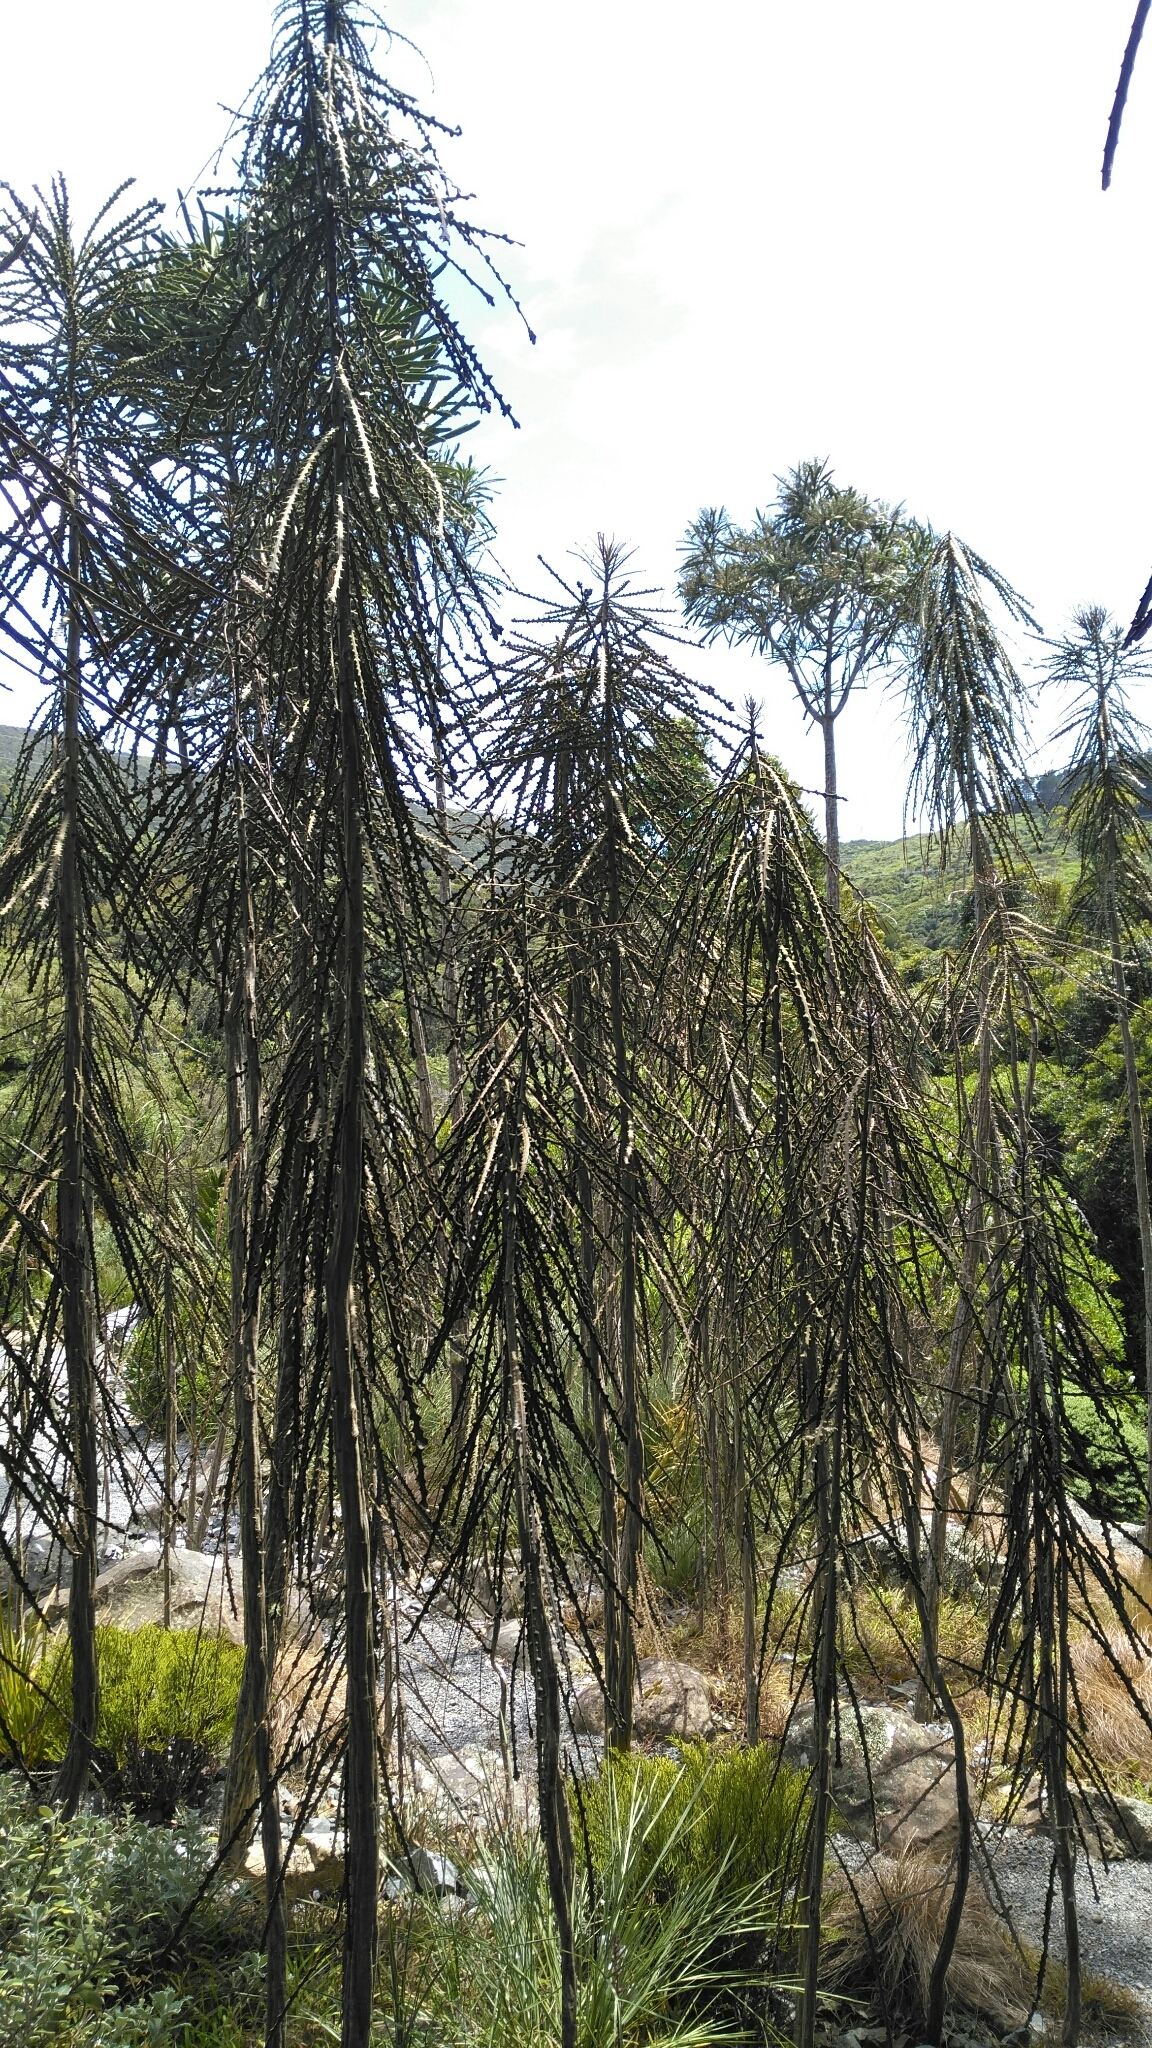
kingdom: Plantae
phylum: Tracheophyta
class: Magnoliopsida
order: Apiales
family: Araliaceae
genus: Pseudopanax
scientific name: Pseudopanax ferox
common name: Fierce lancewood
